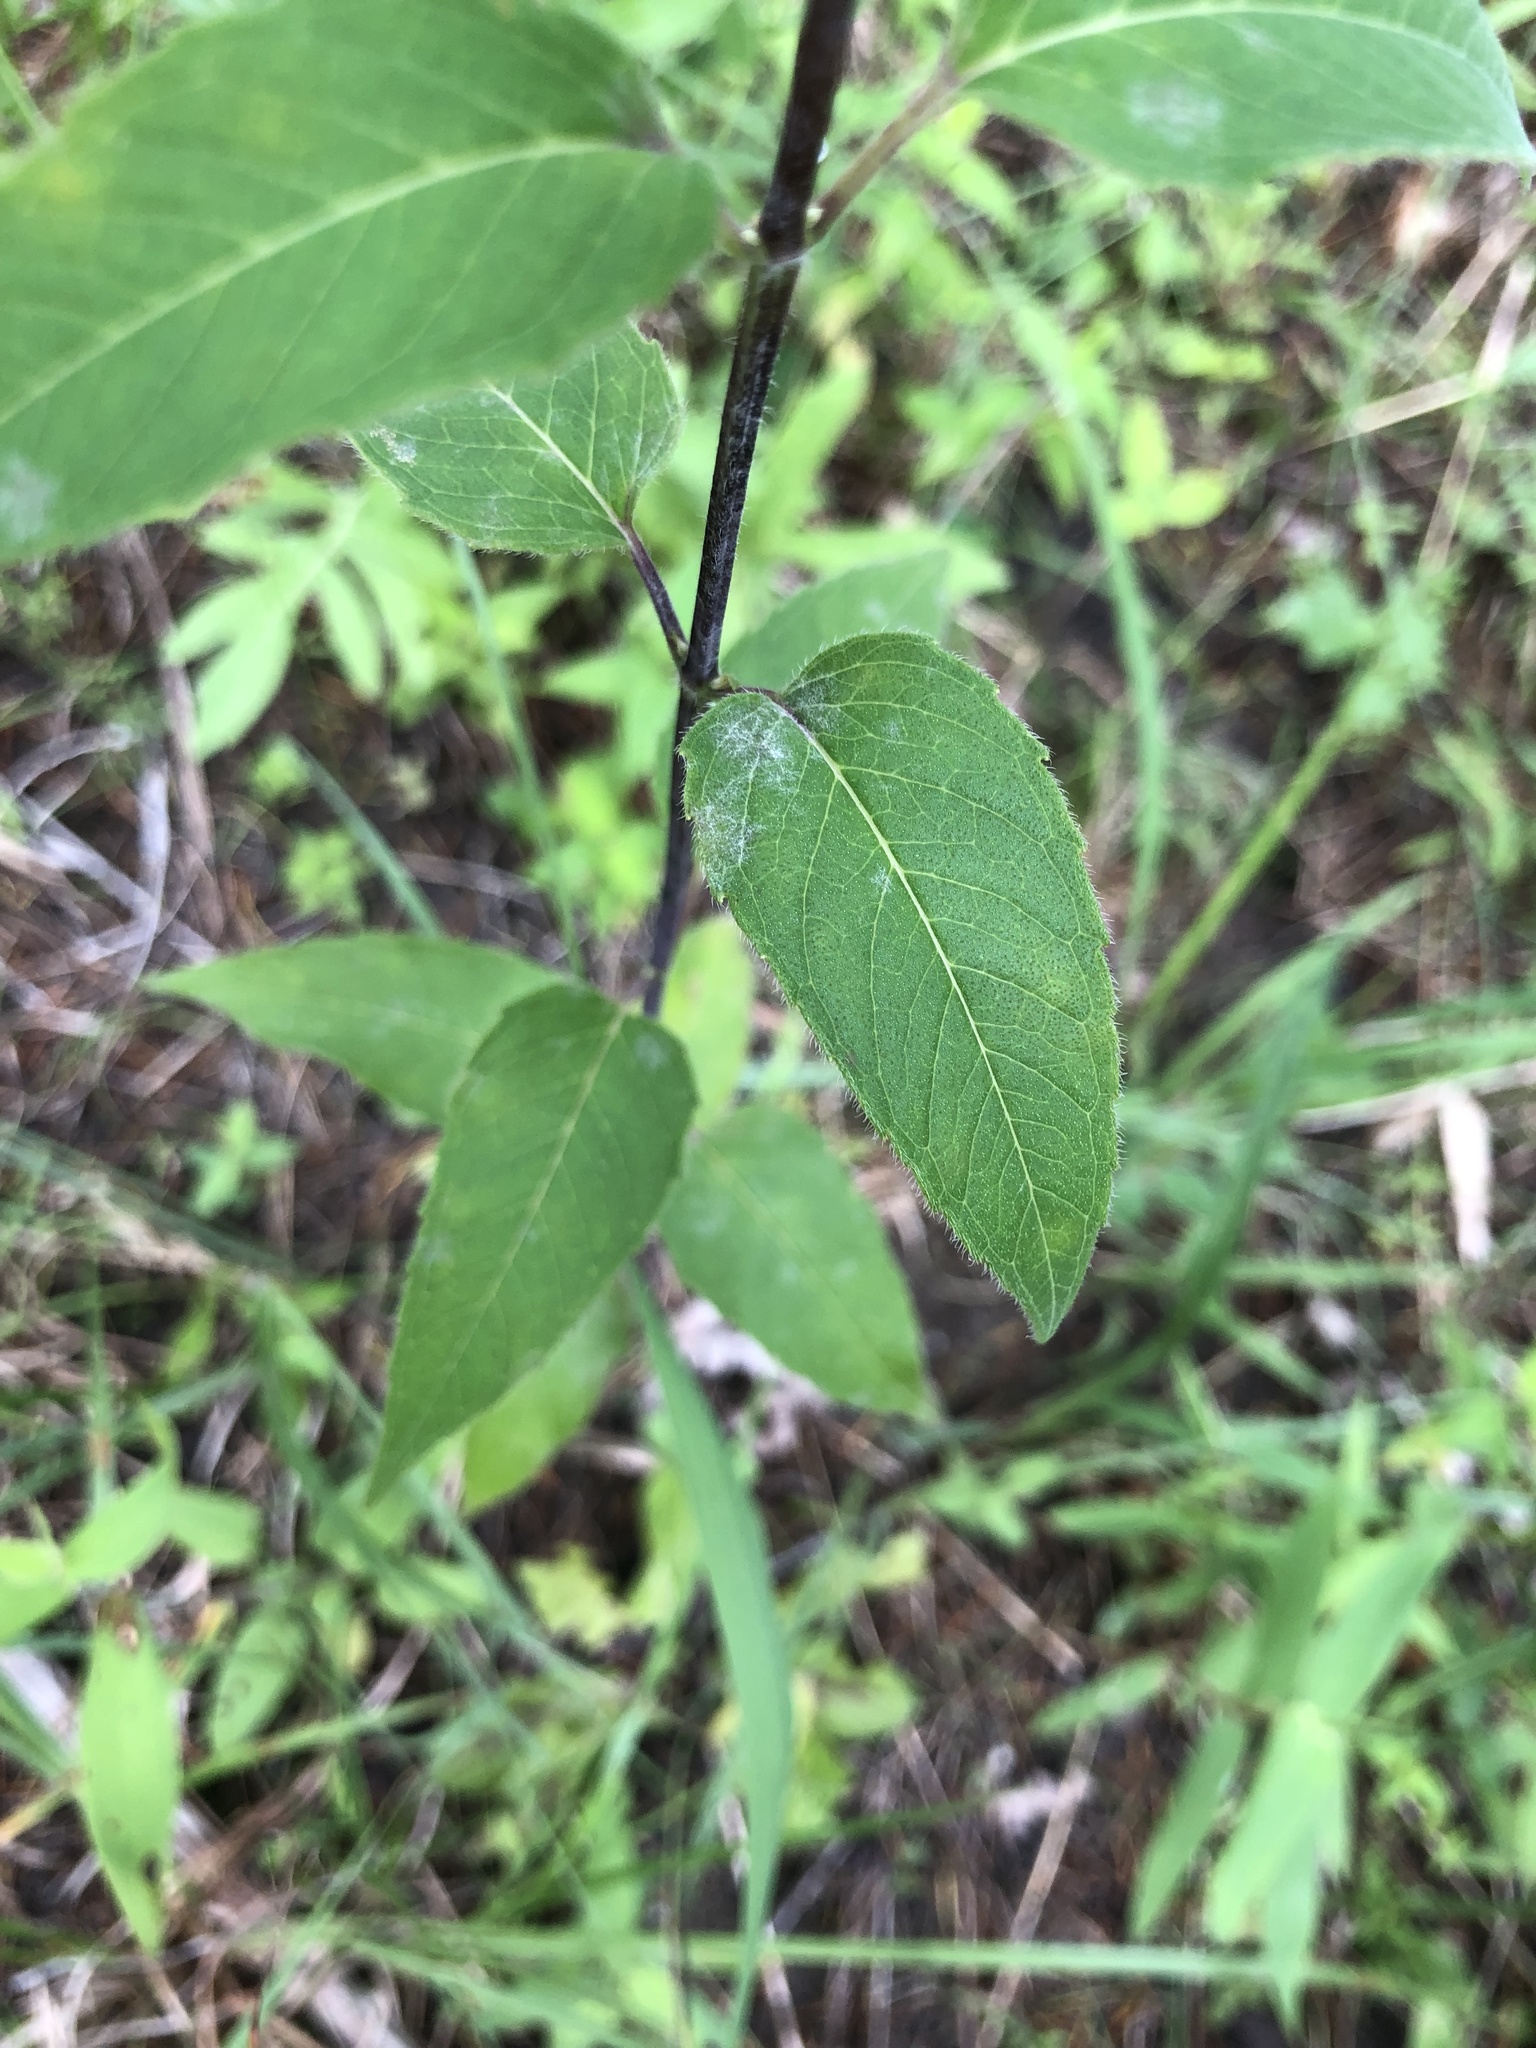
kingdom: Plantae
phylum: Tracheophyta
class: Magnoliopsida
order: Lamiales
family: Lamiaceae
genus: Monarda
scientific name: Monarda fistulosa
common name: Purple beebalm
